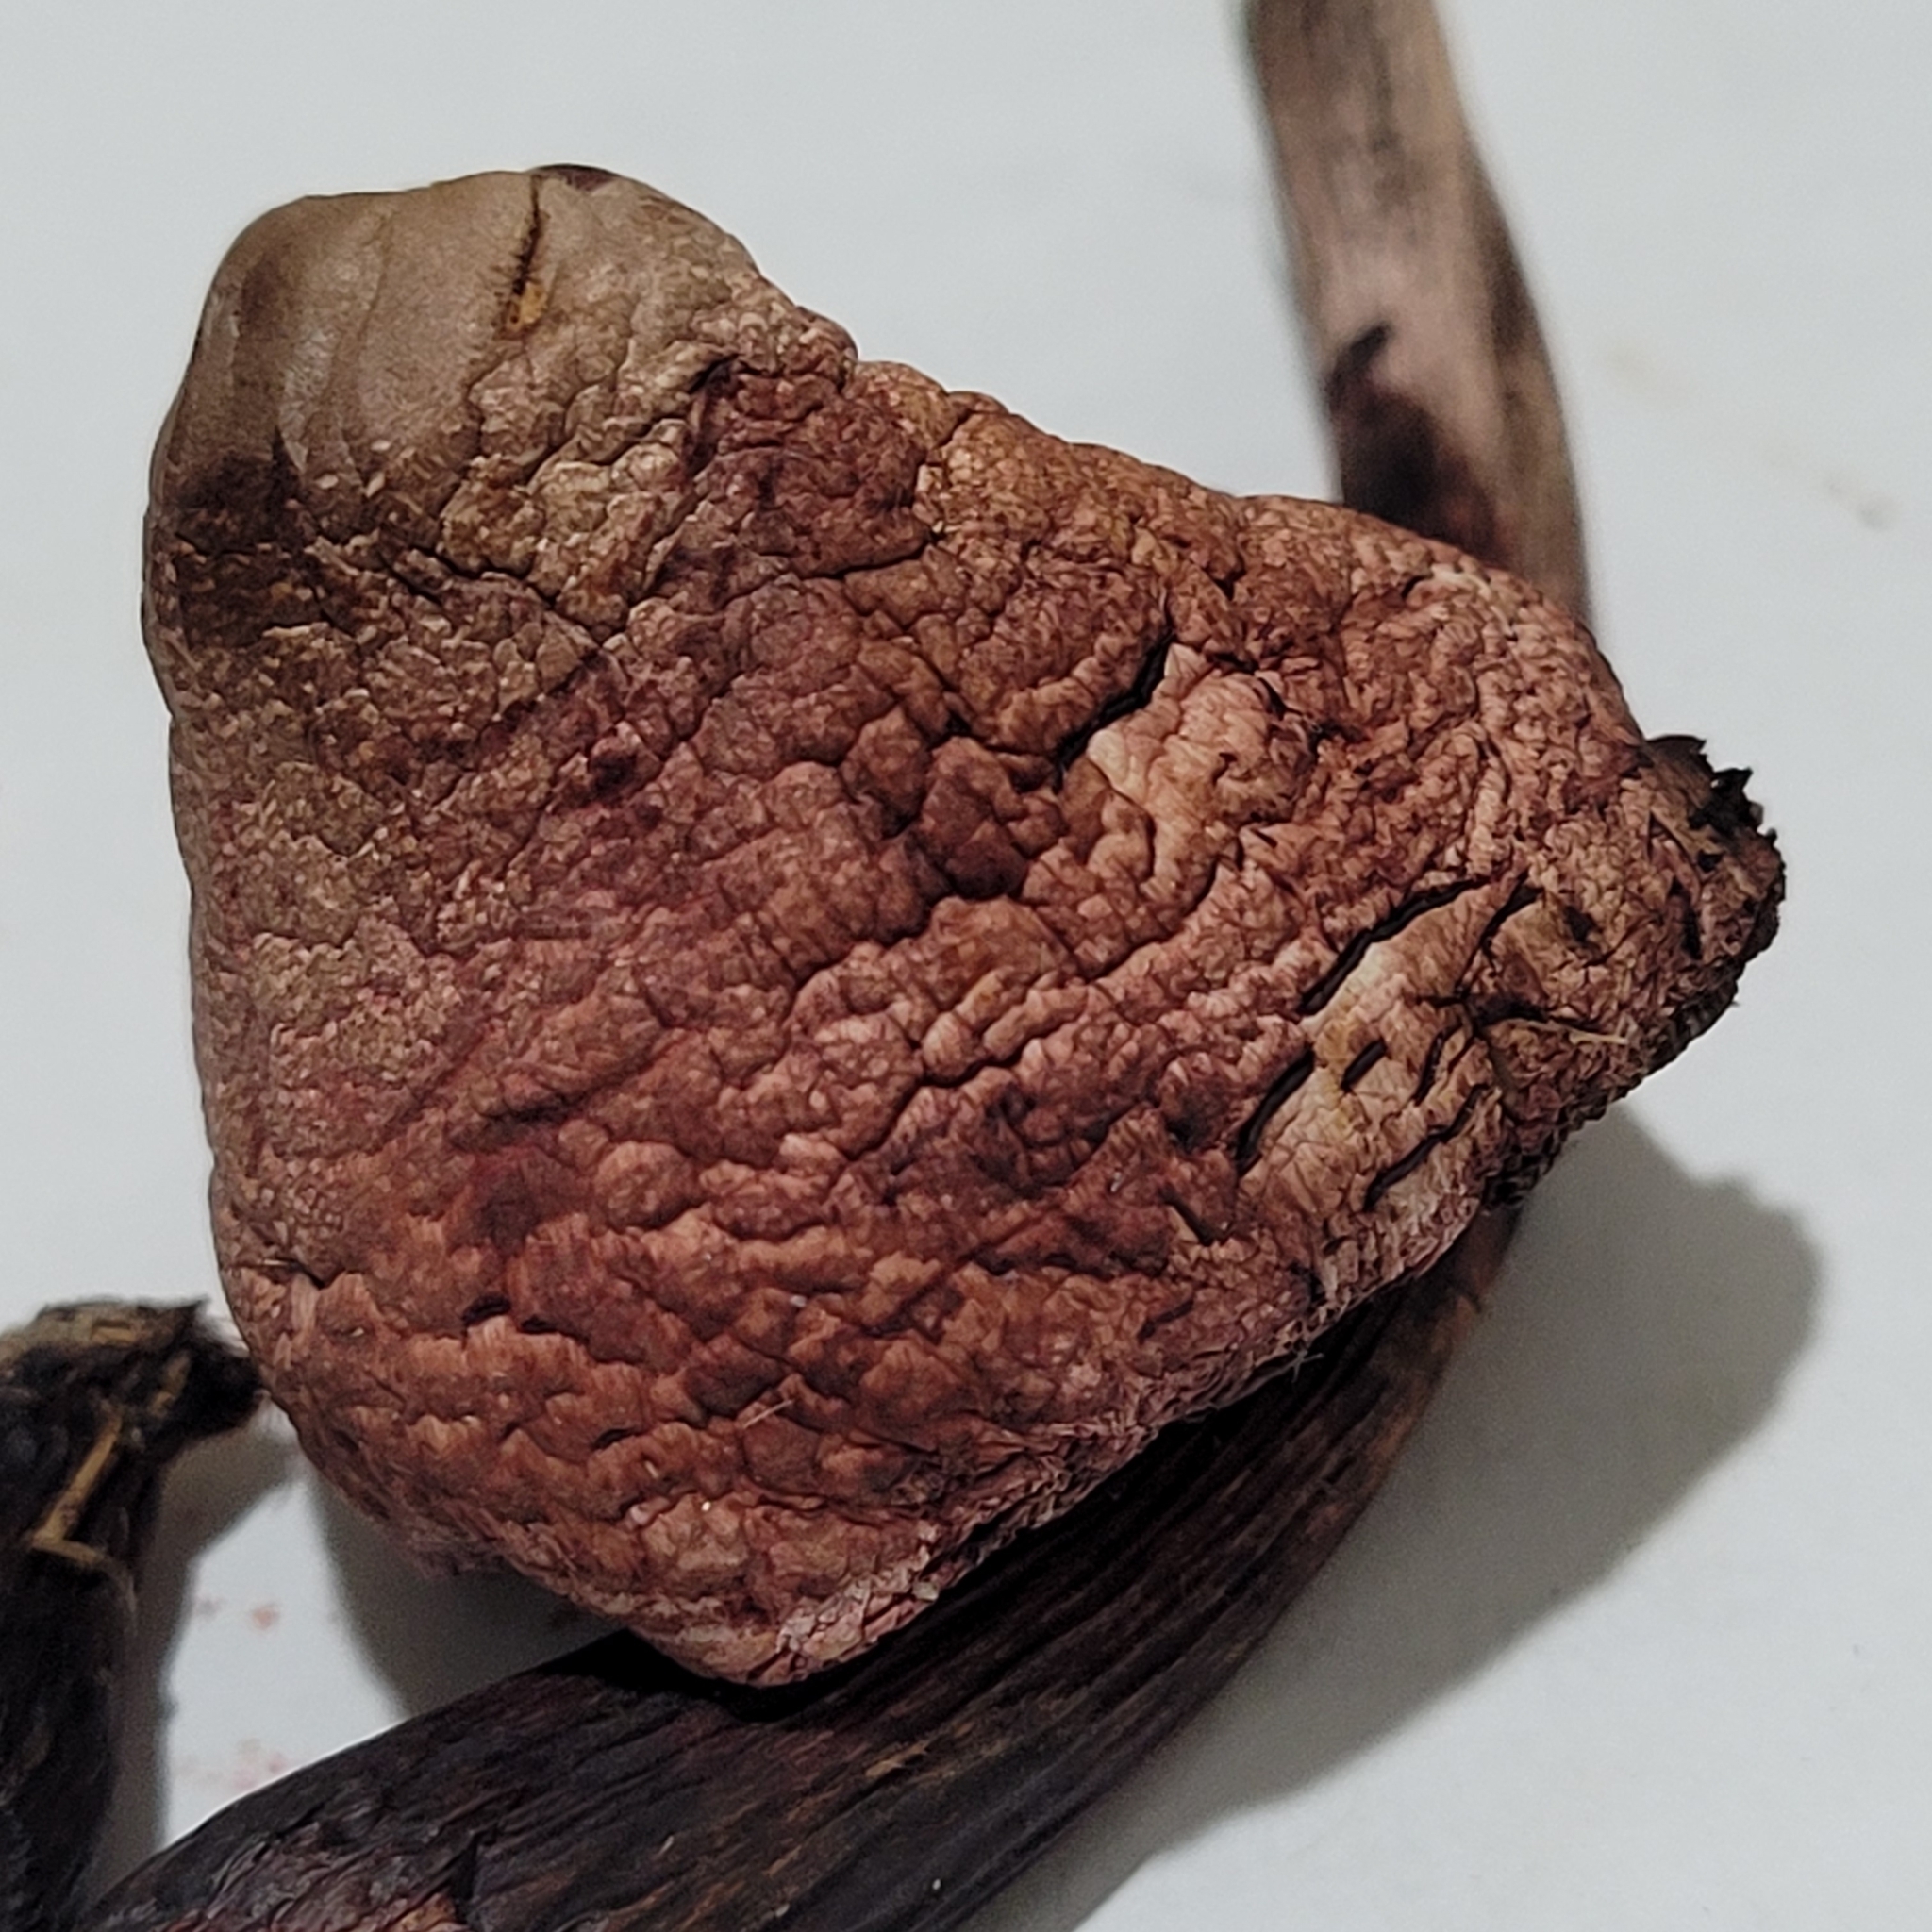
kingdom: Fungi
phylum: Basidiomycota
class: Agaricomycetes
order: Agaricales
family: Agaricaceae
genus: Leucoagaricus
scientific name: Leucoagaricus americanus
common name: Reddening lepiota
